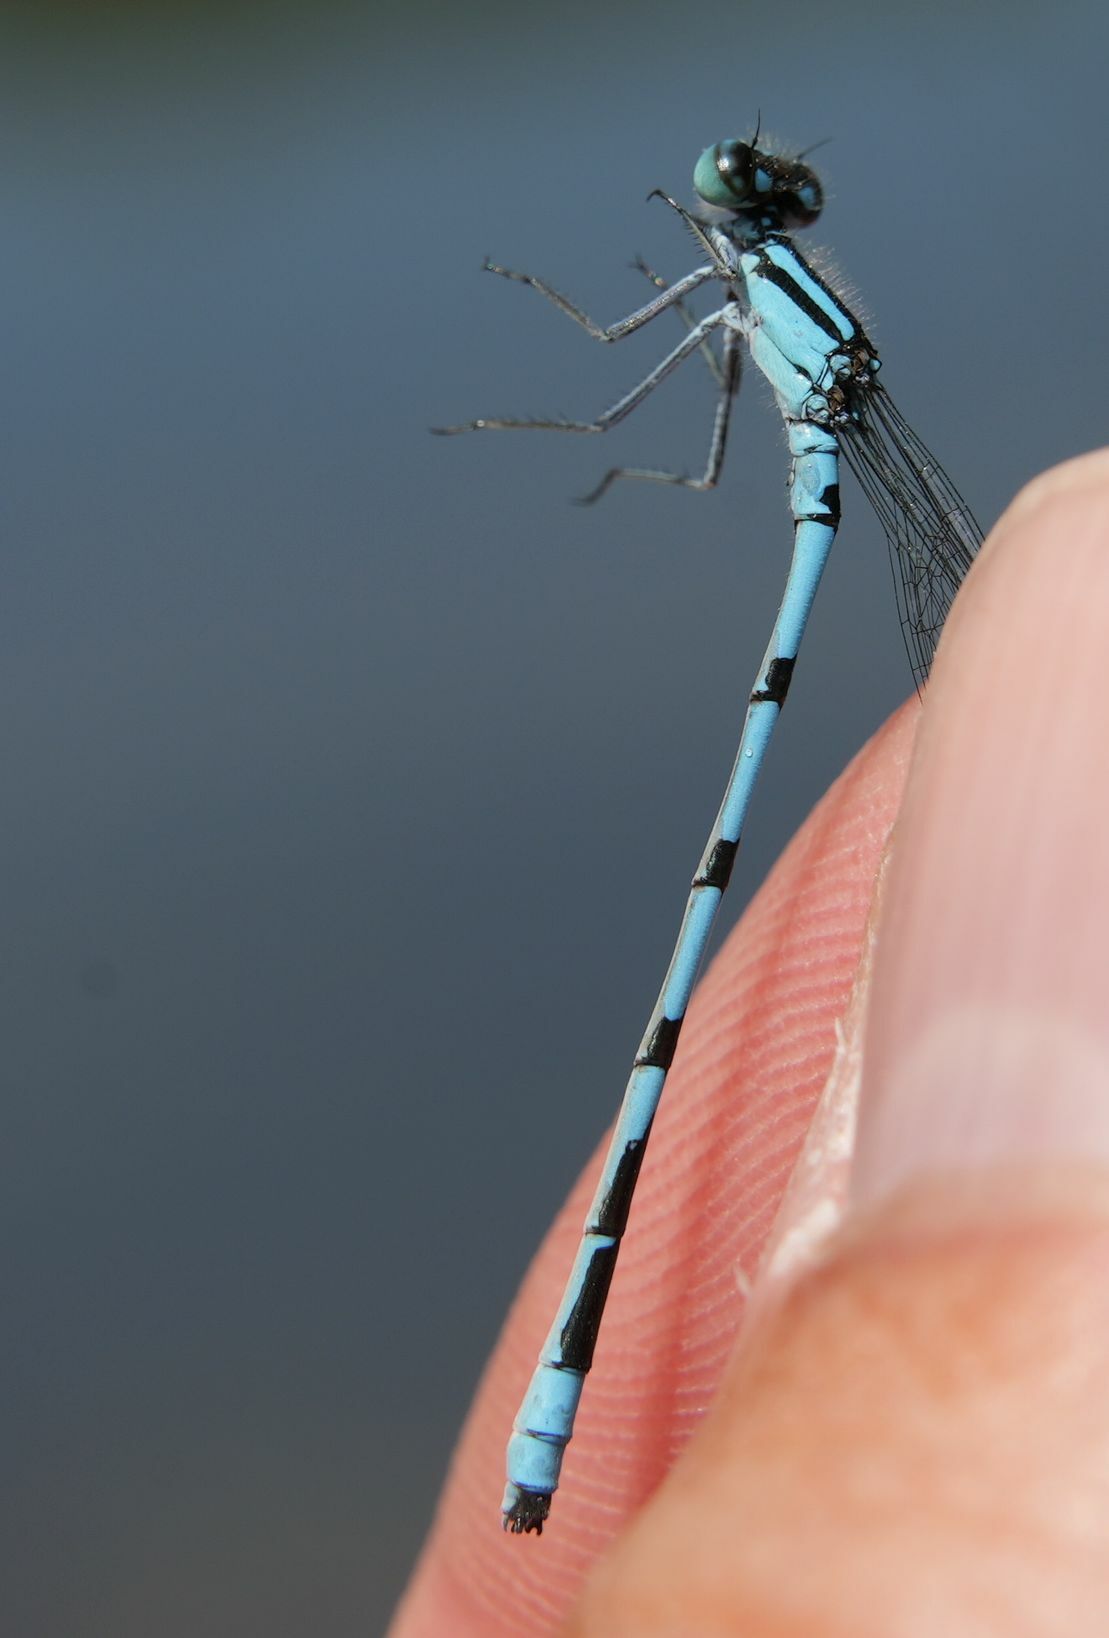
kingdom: Animalia
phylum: Arthropoda
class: Insecta
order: Odonata
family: Coenagrionidae
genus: Enallagma
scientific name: Enallagma ebrium
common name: Marsh bluet
